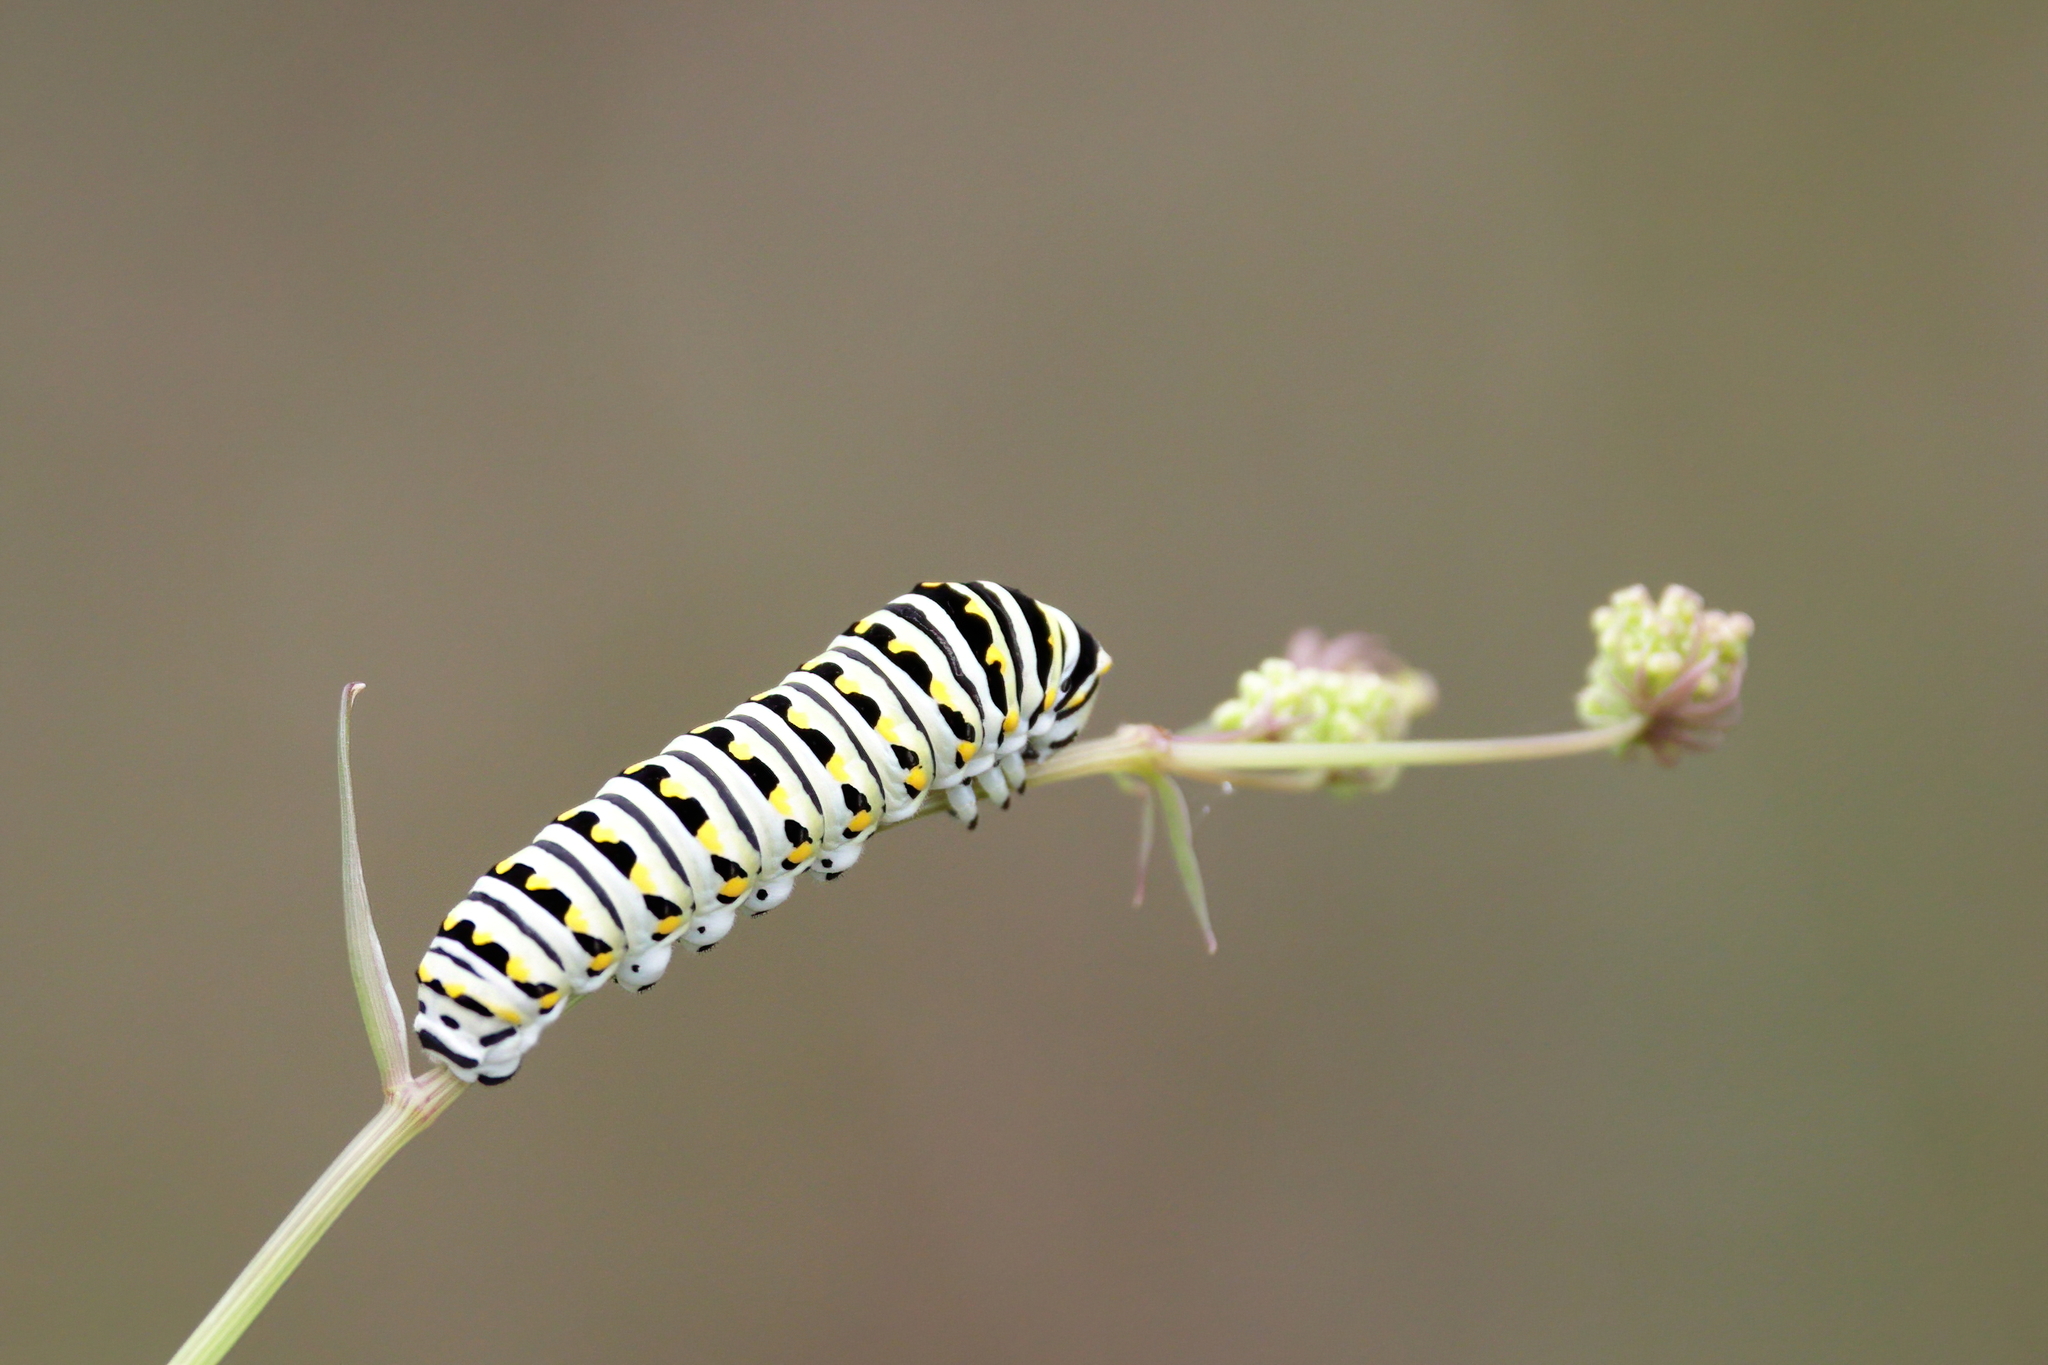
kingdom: Animalia
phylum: Arthropoda
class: Insecta
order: Lepidoptera
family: Papilionidae
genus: Papilio
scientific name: Papilio polyxenes
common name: Black swallowtail
